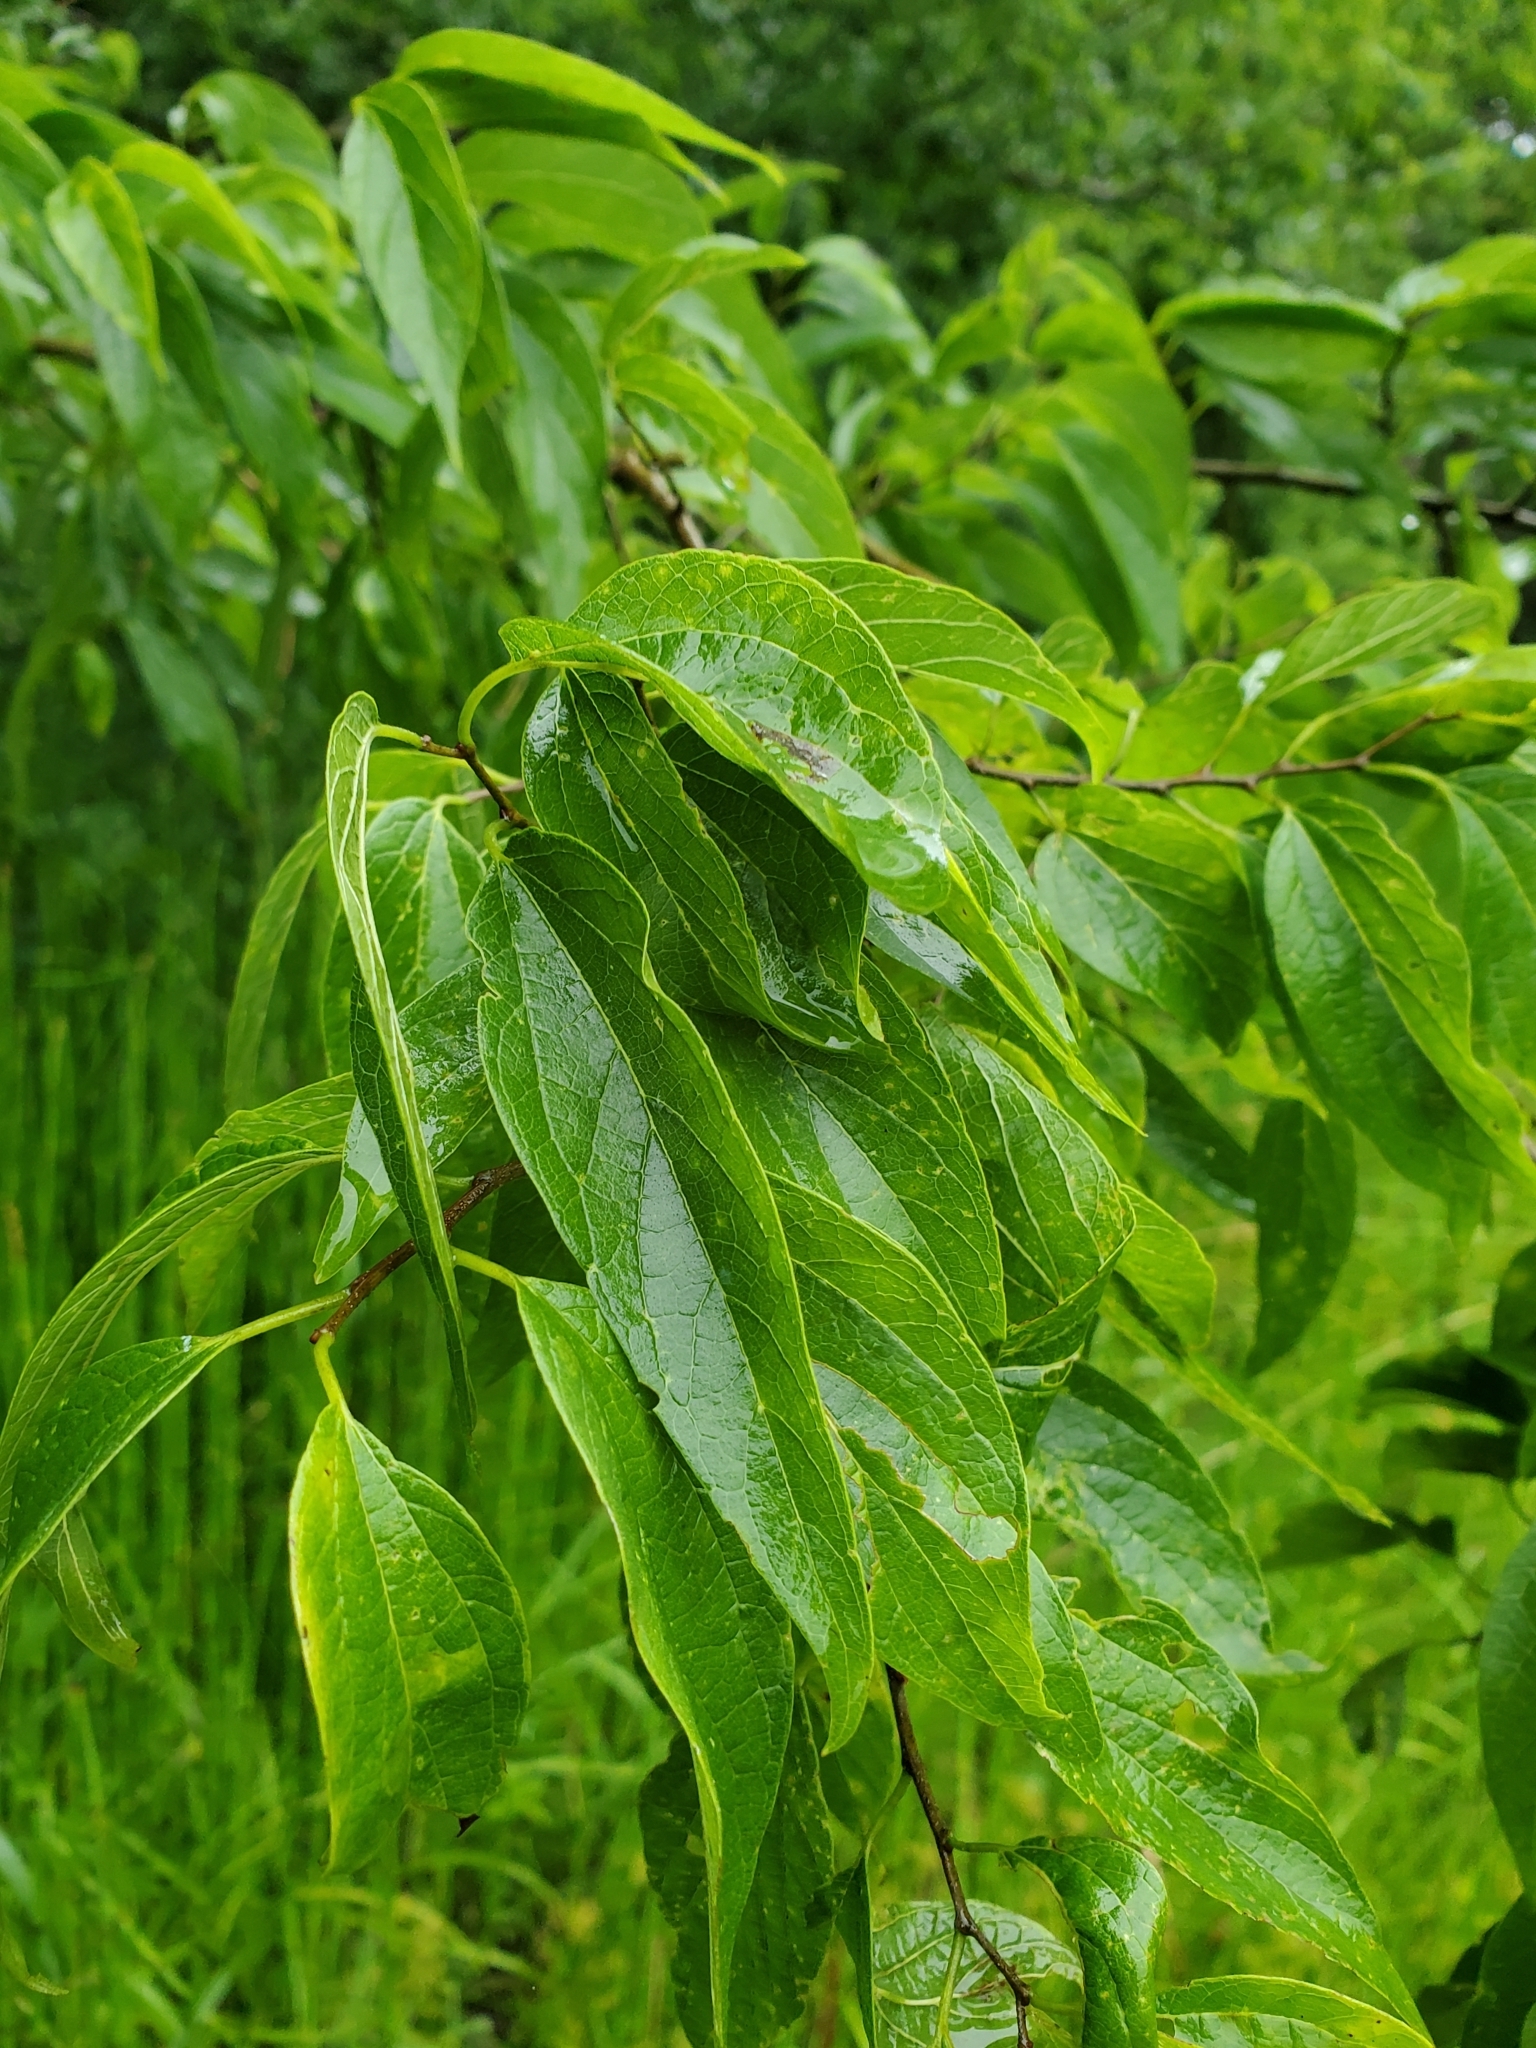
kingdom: Plantae
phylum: Tracheophyta
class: Magnoliopsida
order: Rosales
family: Cannabaceae
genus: Celtis
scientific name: Celtis laevigata
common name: Sugarberry
